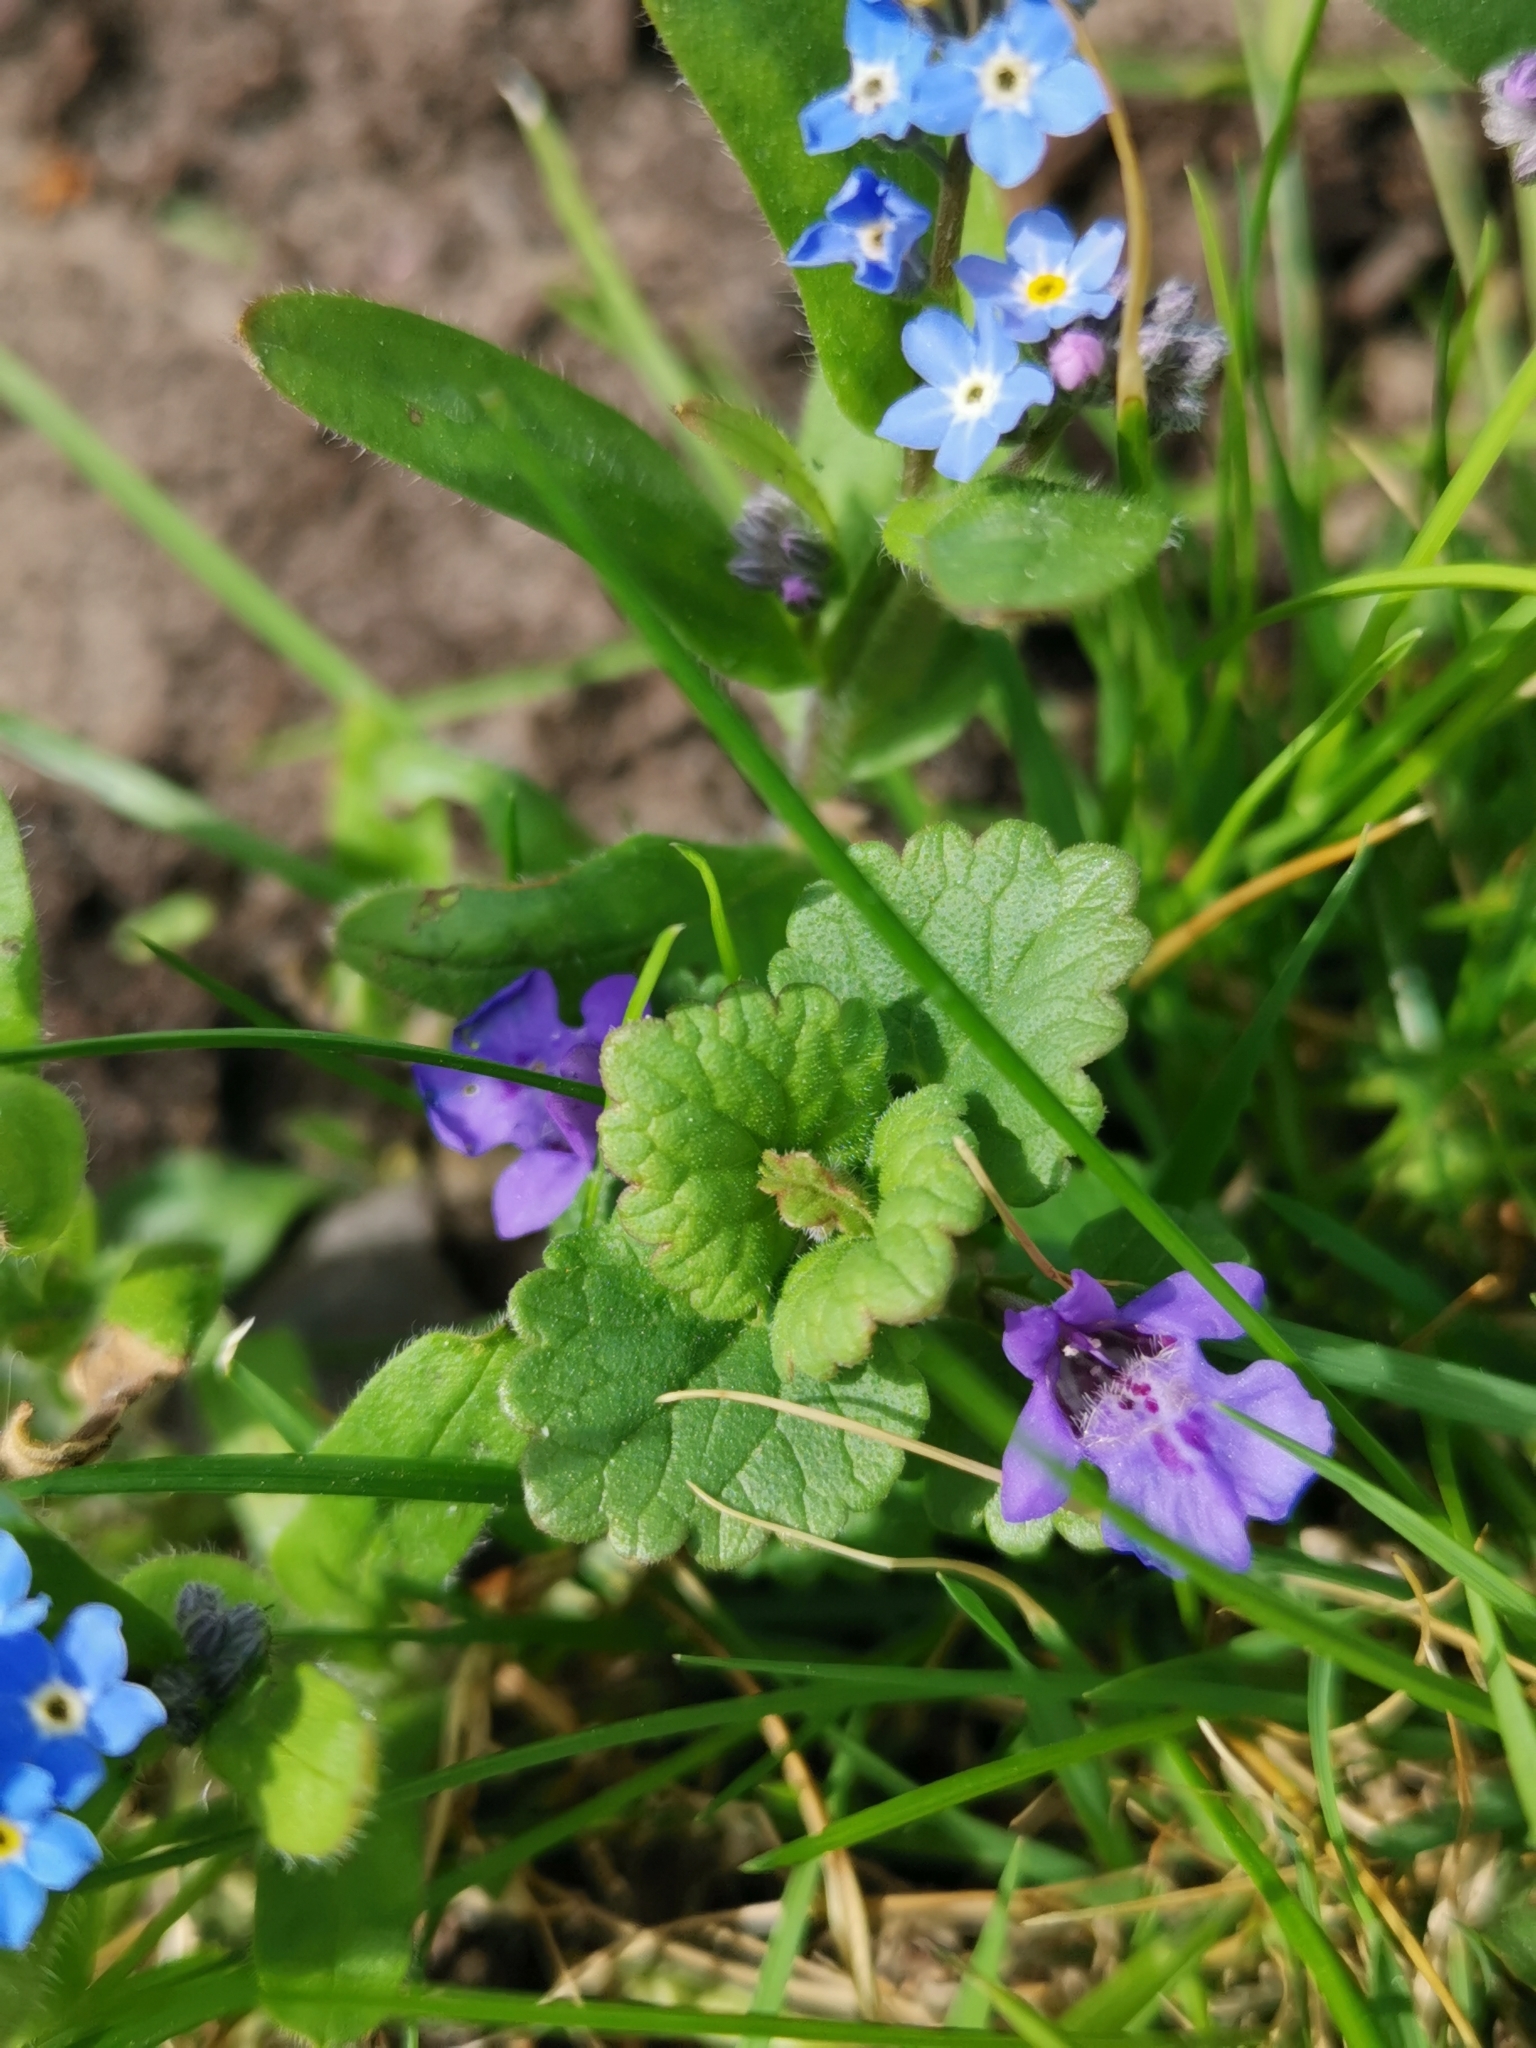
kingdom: Plantae
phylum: Tracheophyta
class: Magnoliopsida
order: Lamiales
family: Lamiaceae
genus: Glechoma
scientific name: Glechoma hederacea
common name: Ground ivy
